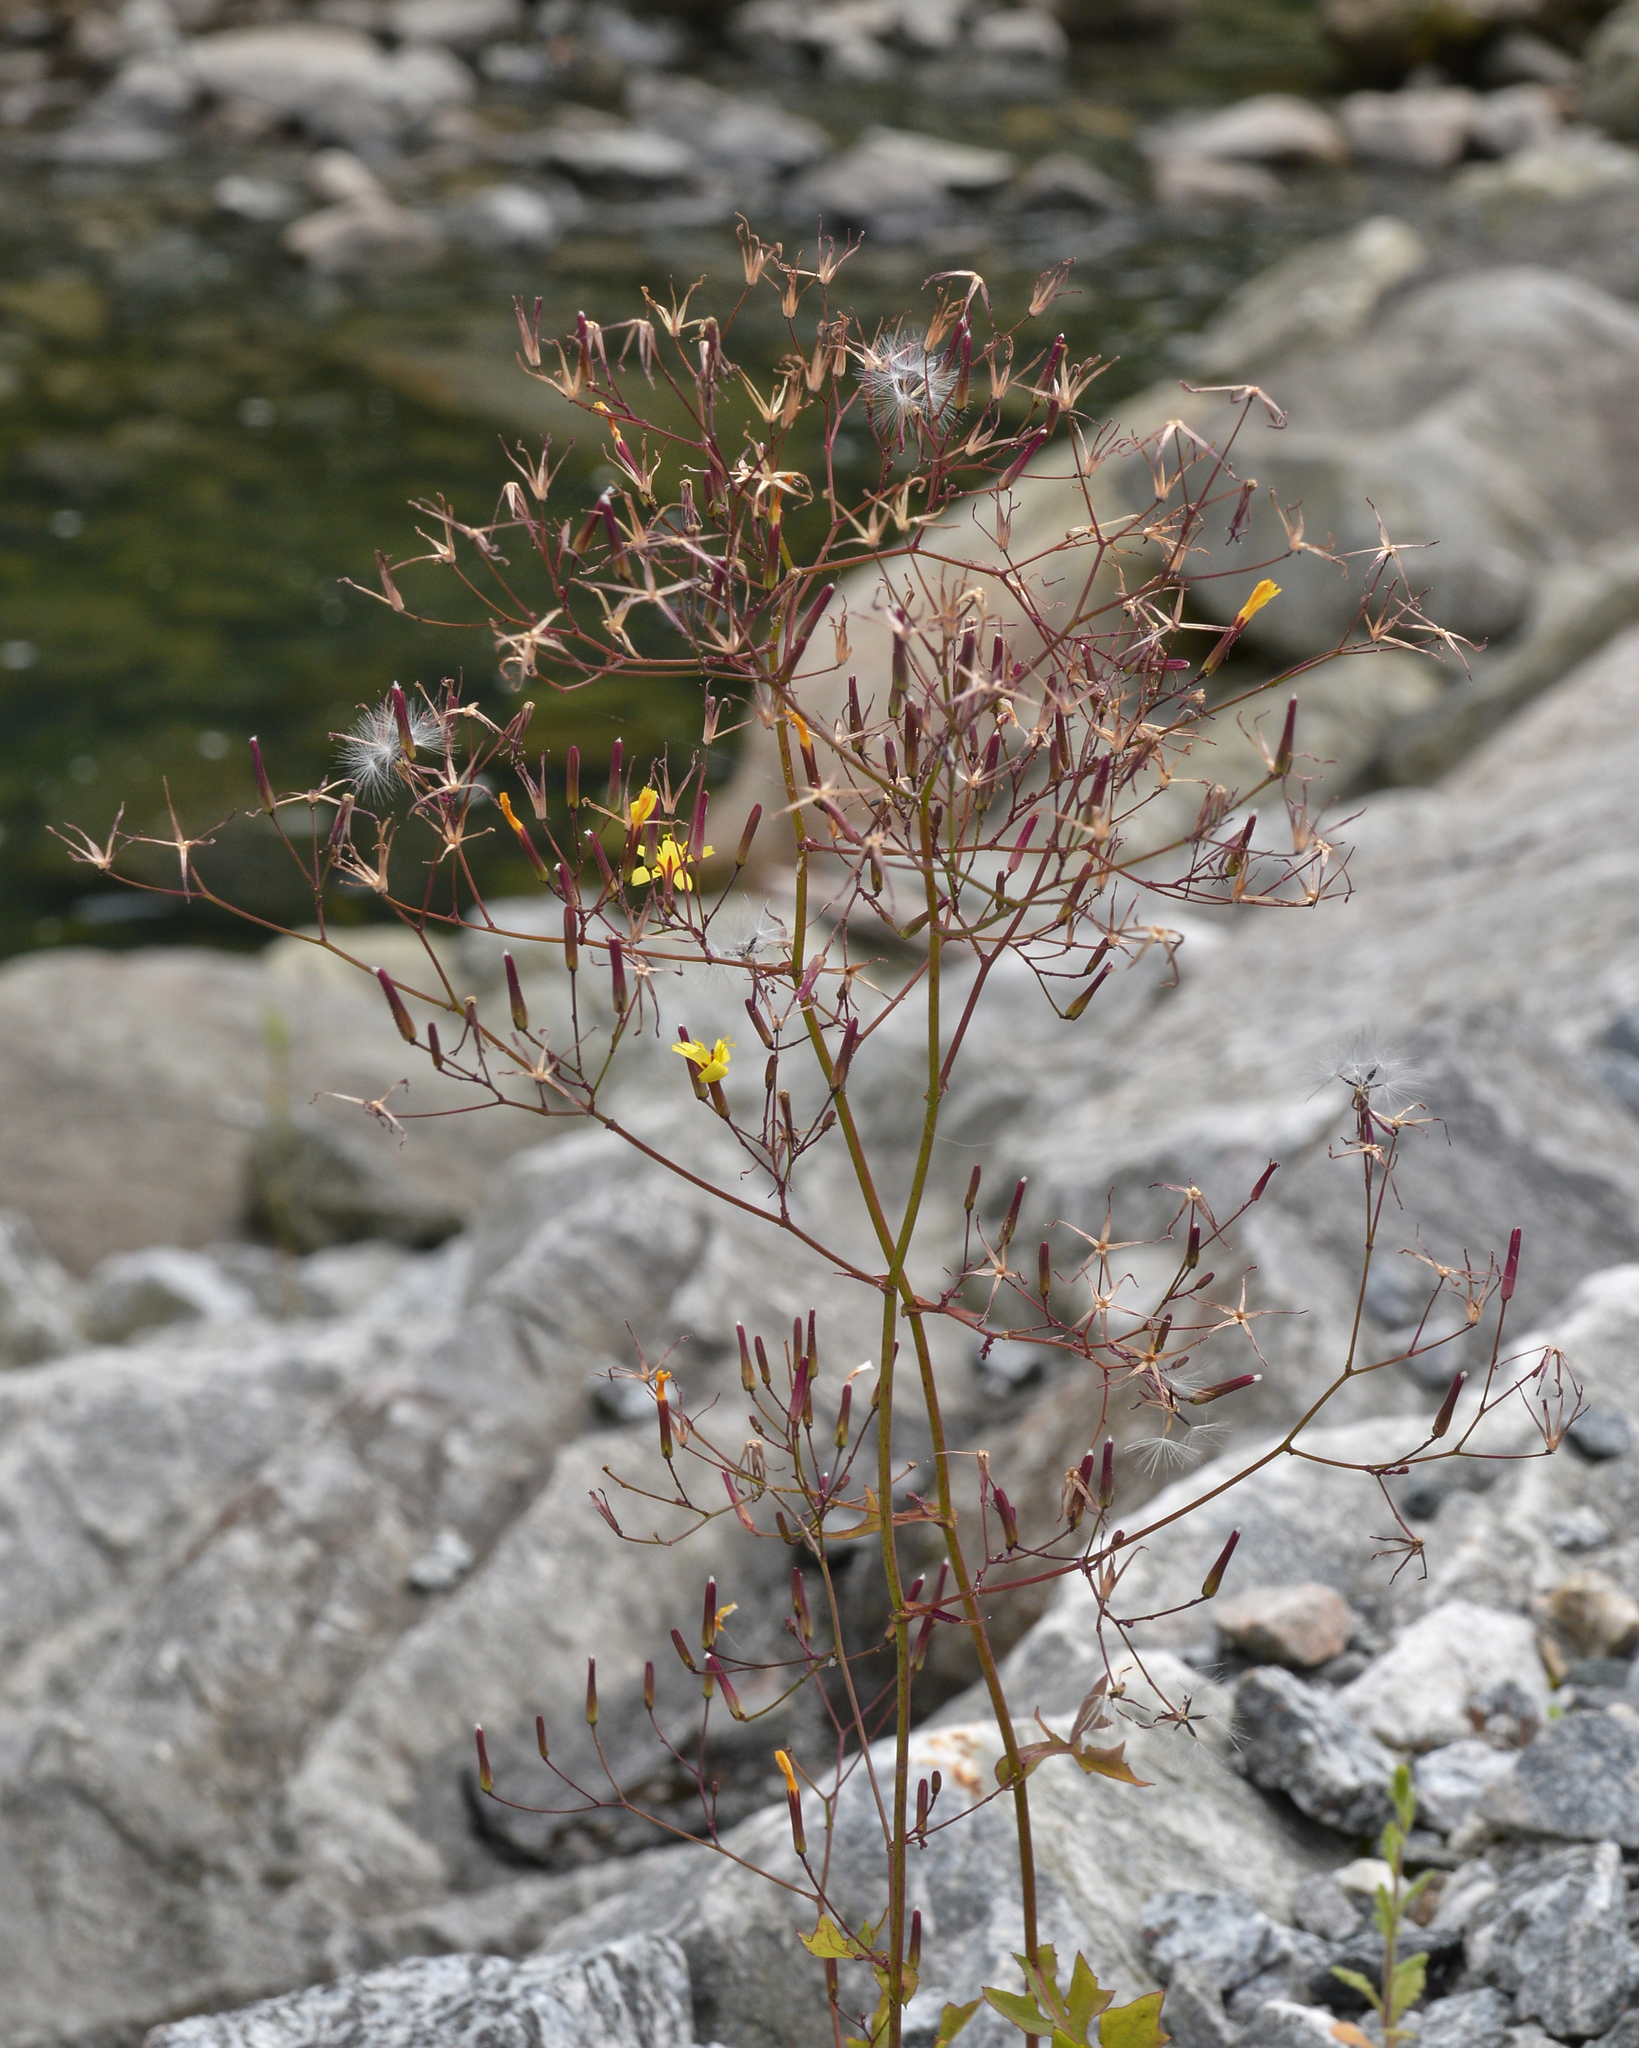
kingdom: Plantae
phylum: Tracheophyta
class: Magnoliopsida
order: Asterales
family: Asteraceae
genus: Mycelis
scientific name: Mycelis muralis
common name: Wall lettuce
